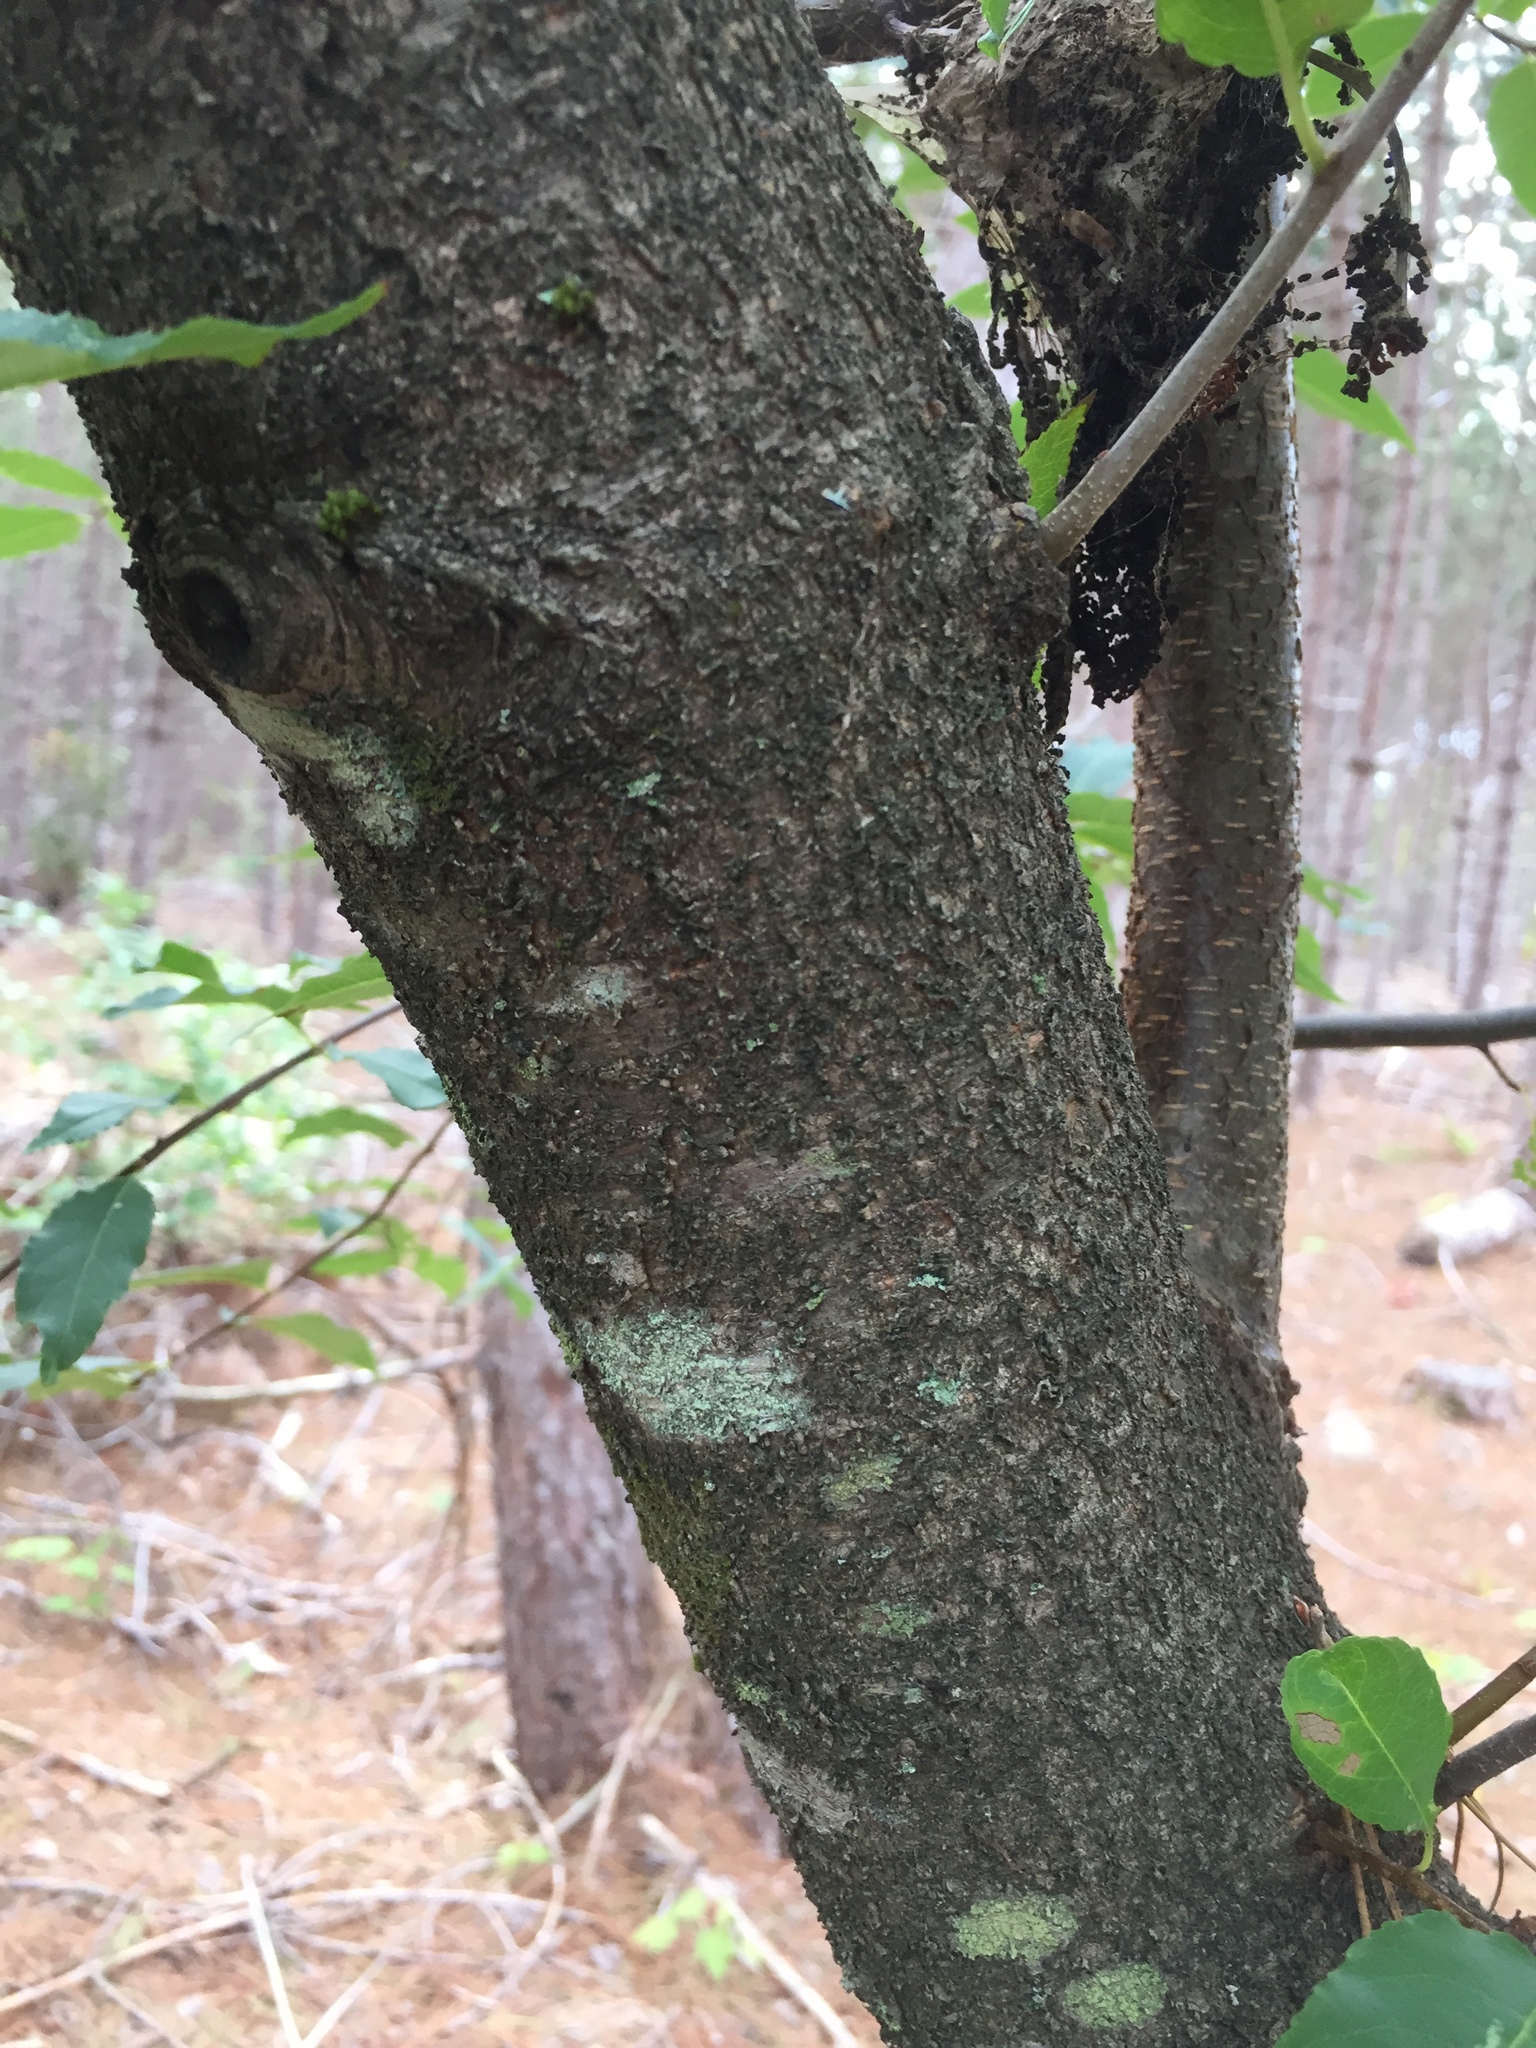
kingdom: Plantae
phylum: Tracheophyta
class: Magnoliopsida
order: Rosales
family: Rosaceae
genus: Prunus
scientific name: Prunus serotina
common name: Black cherry
